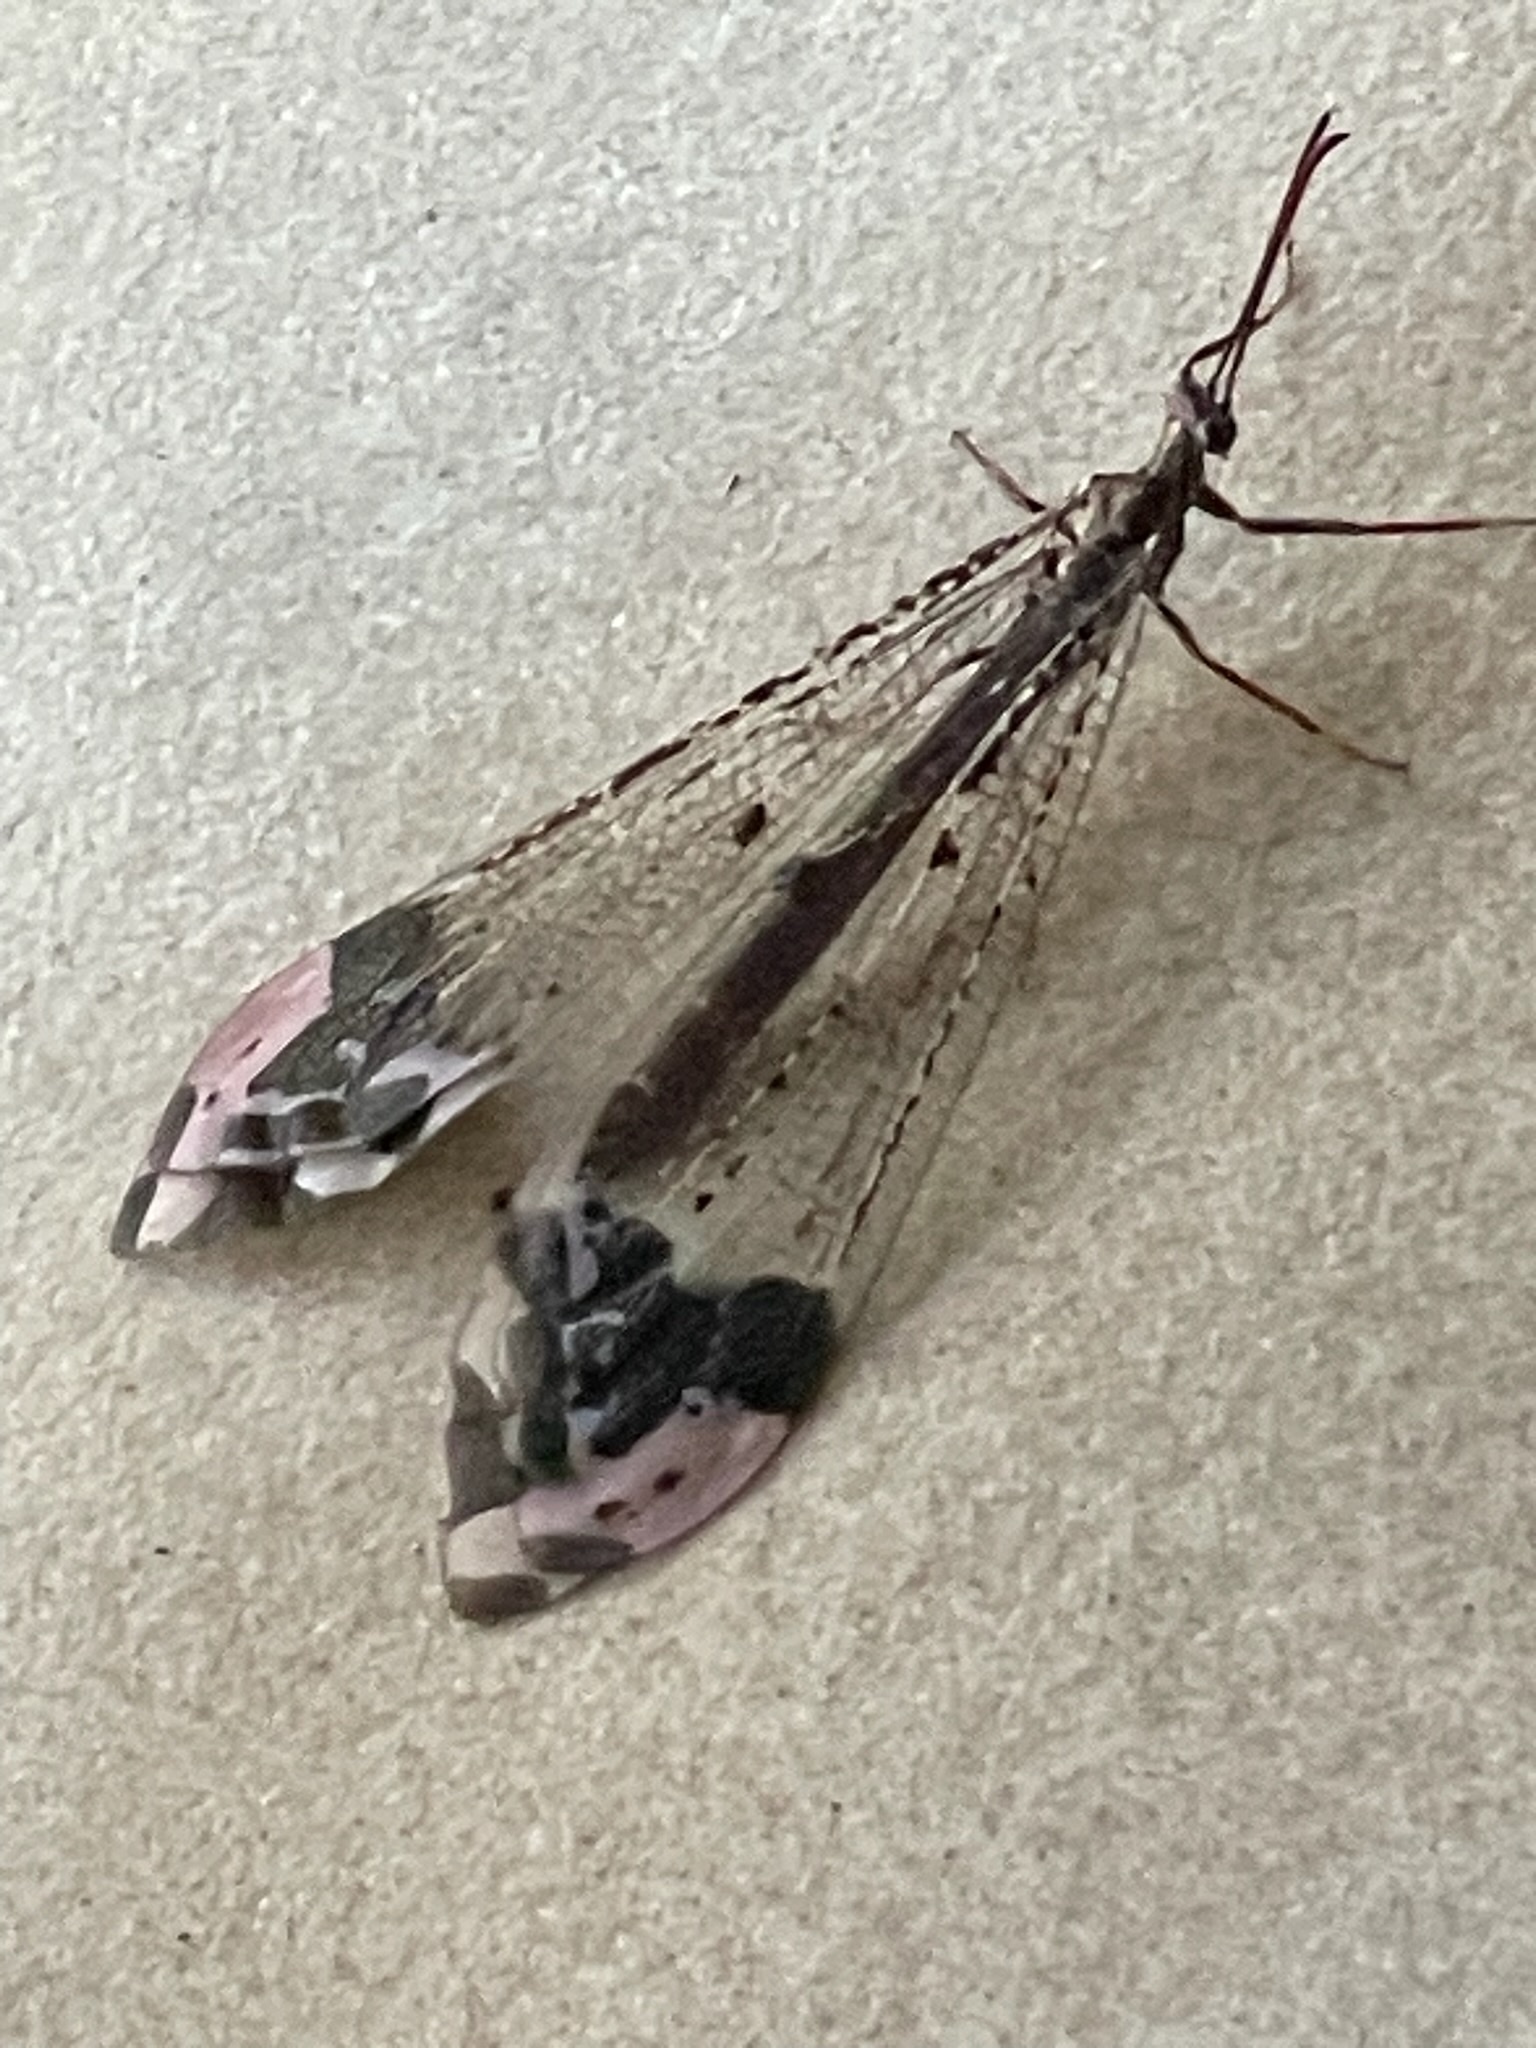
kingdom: Animalia
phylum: Arthropoda
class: Insecta
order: Neuroptera
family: Myrmeleontidae
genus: Glenurus
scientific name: Glenurus gratus
